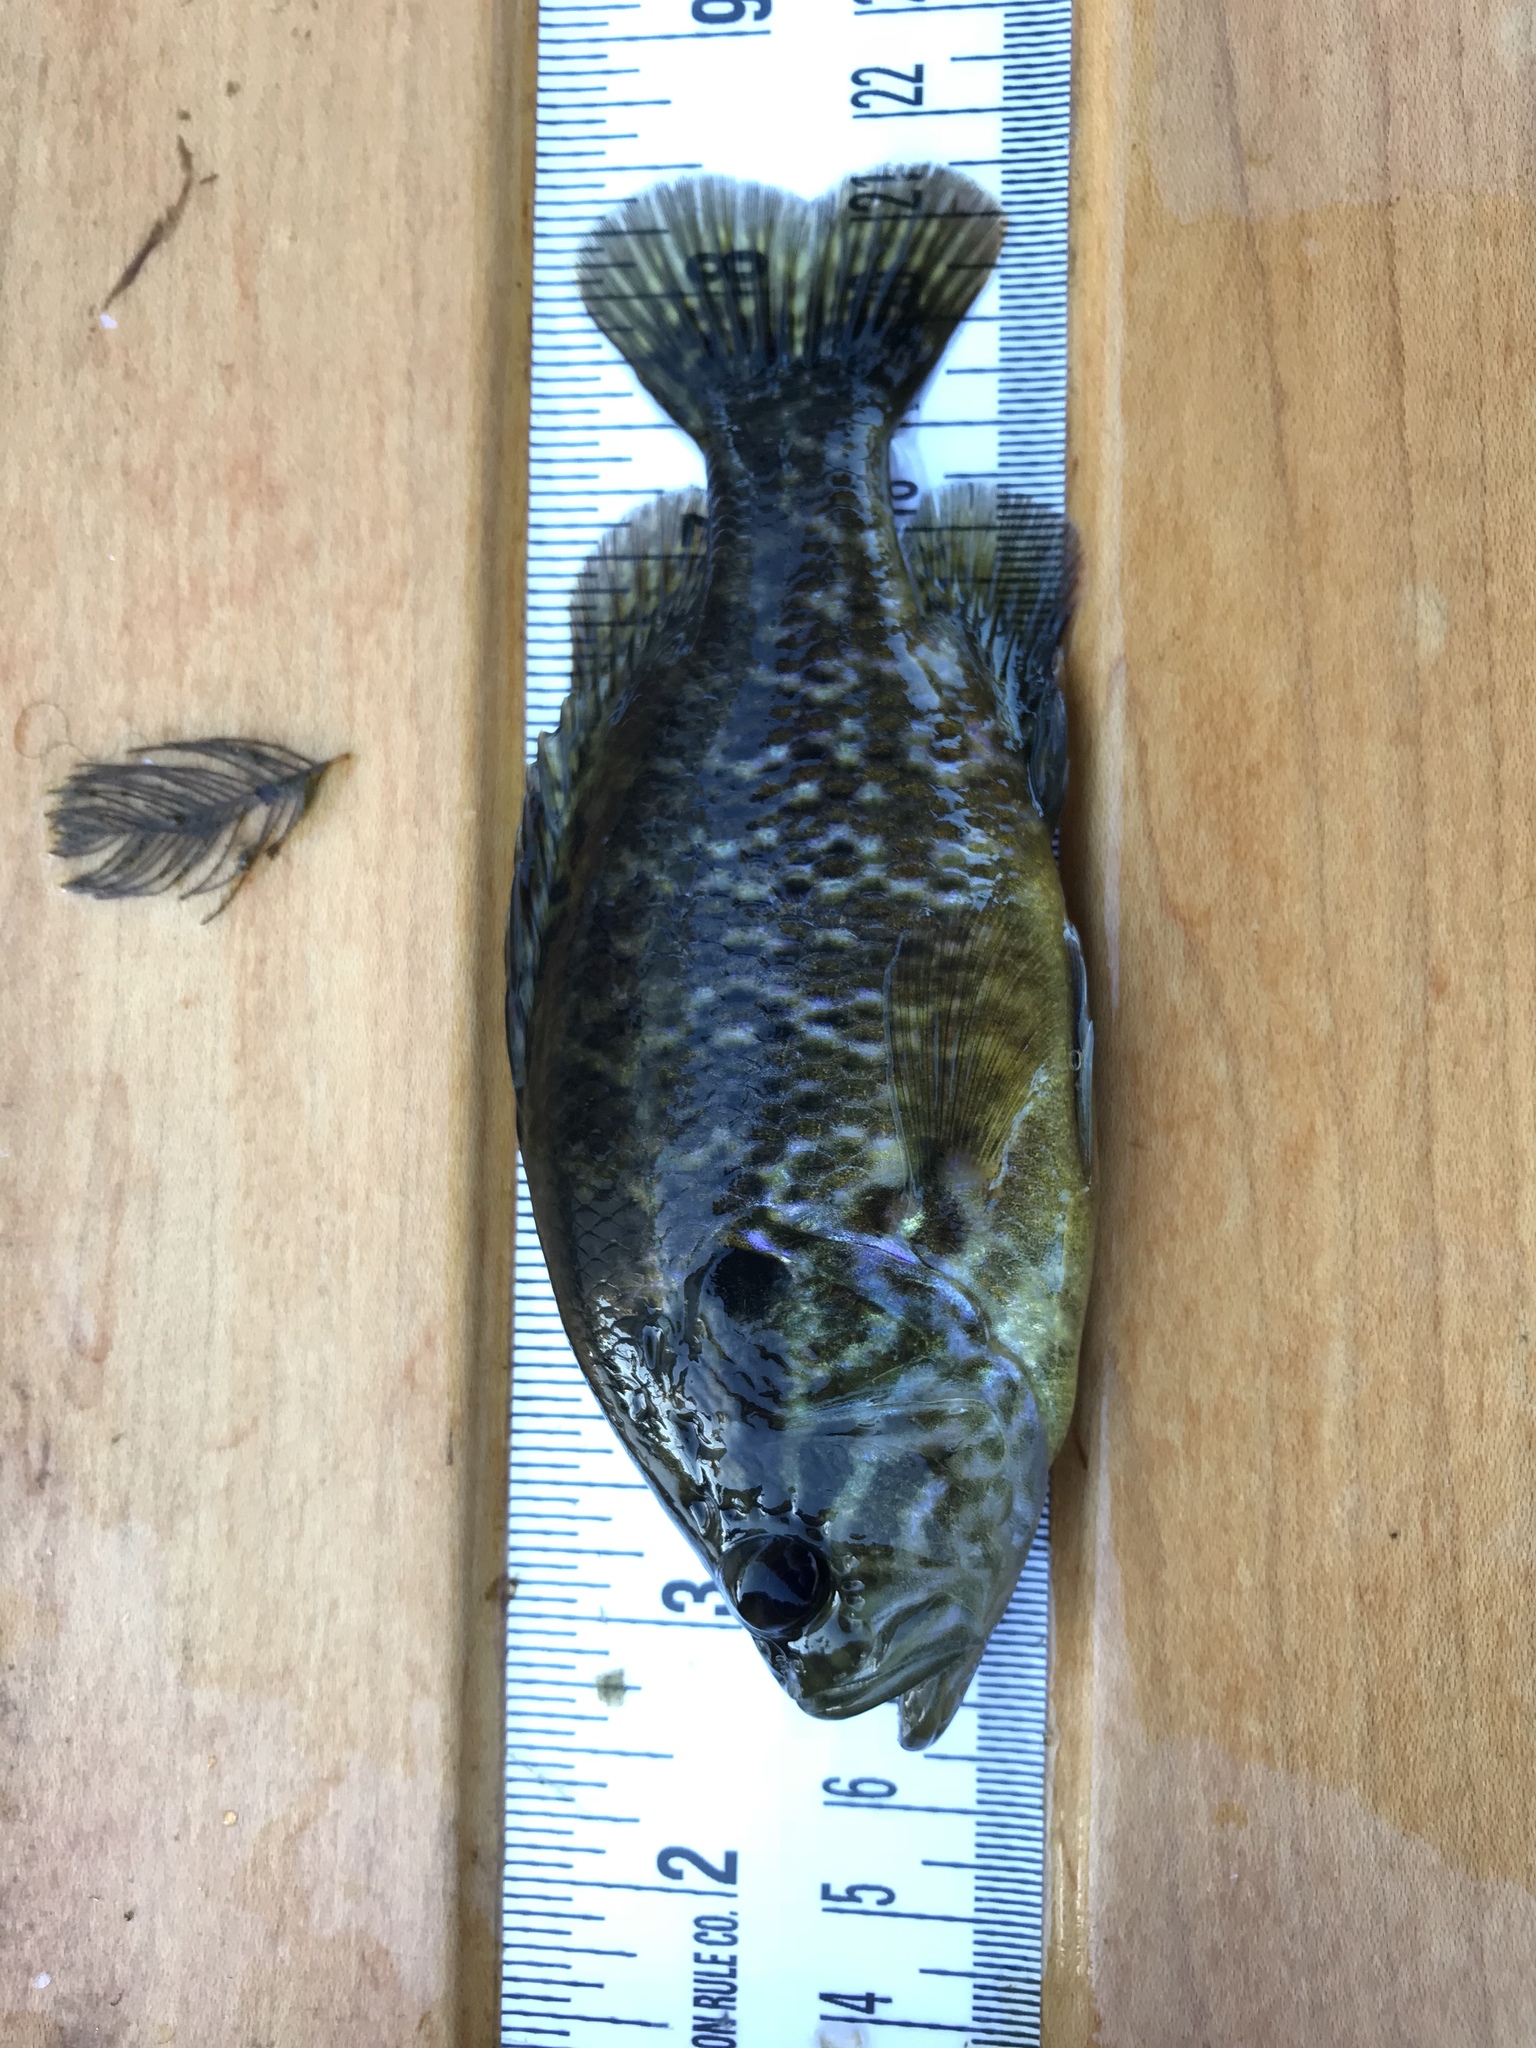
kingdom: Animalia
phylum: Chordata
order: Perciformes
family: Centrarchidae
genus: Lepomis
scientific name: Lepomis gulosus
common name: Warmouth
